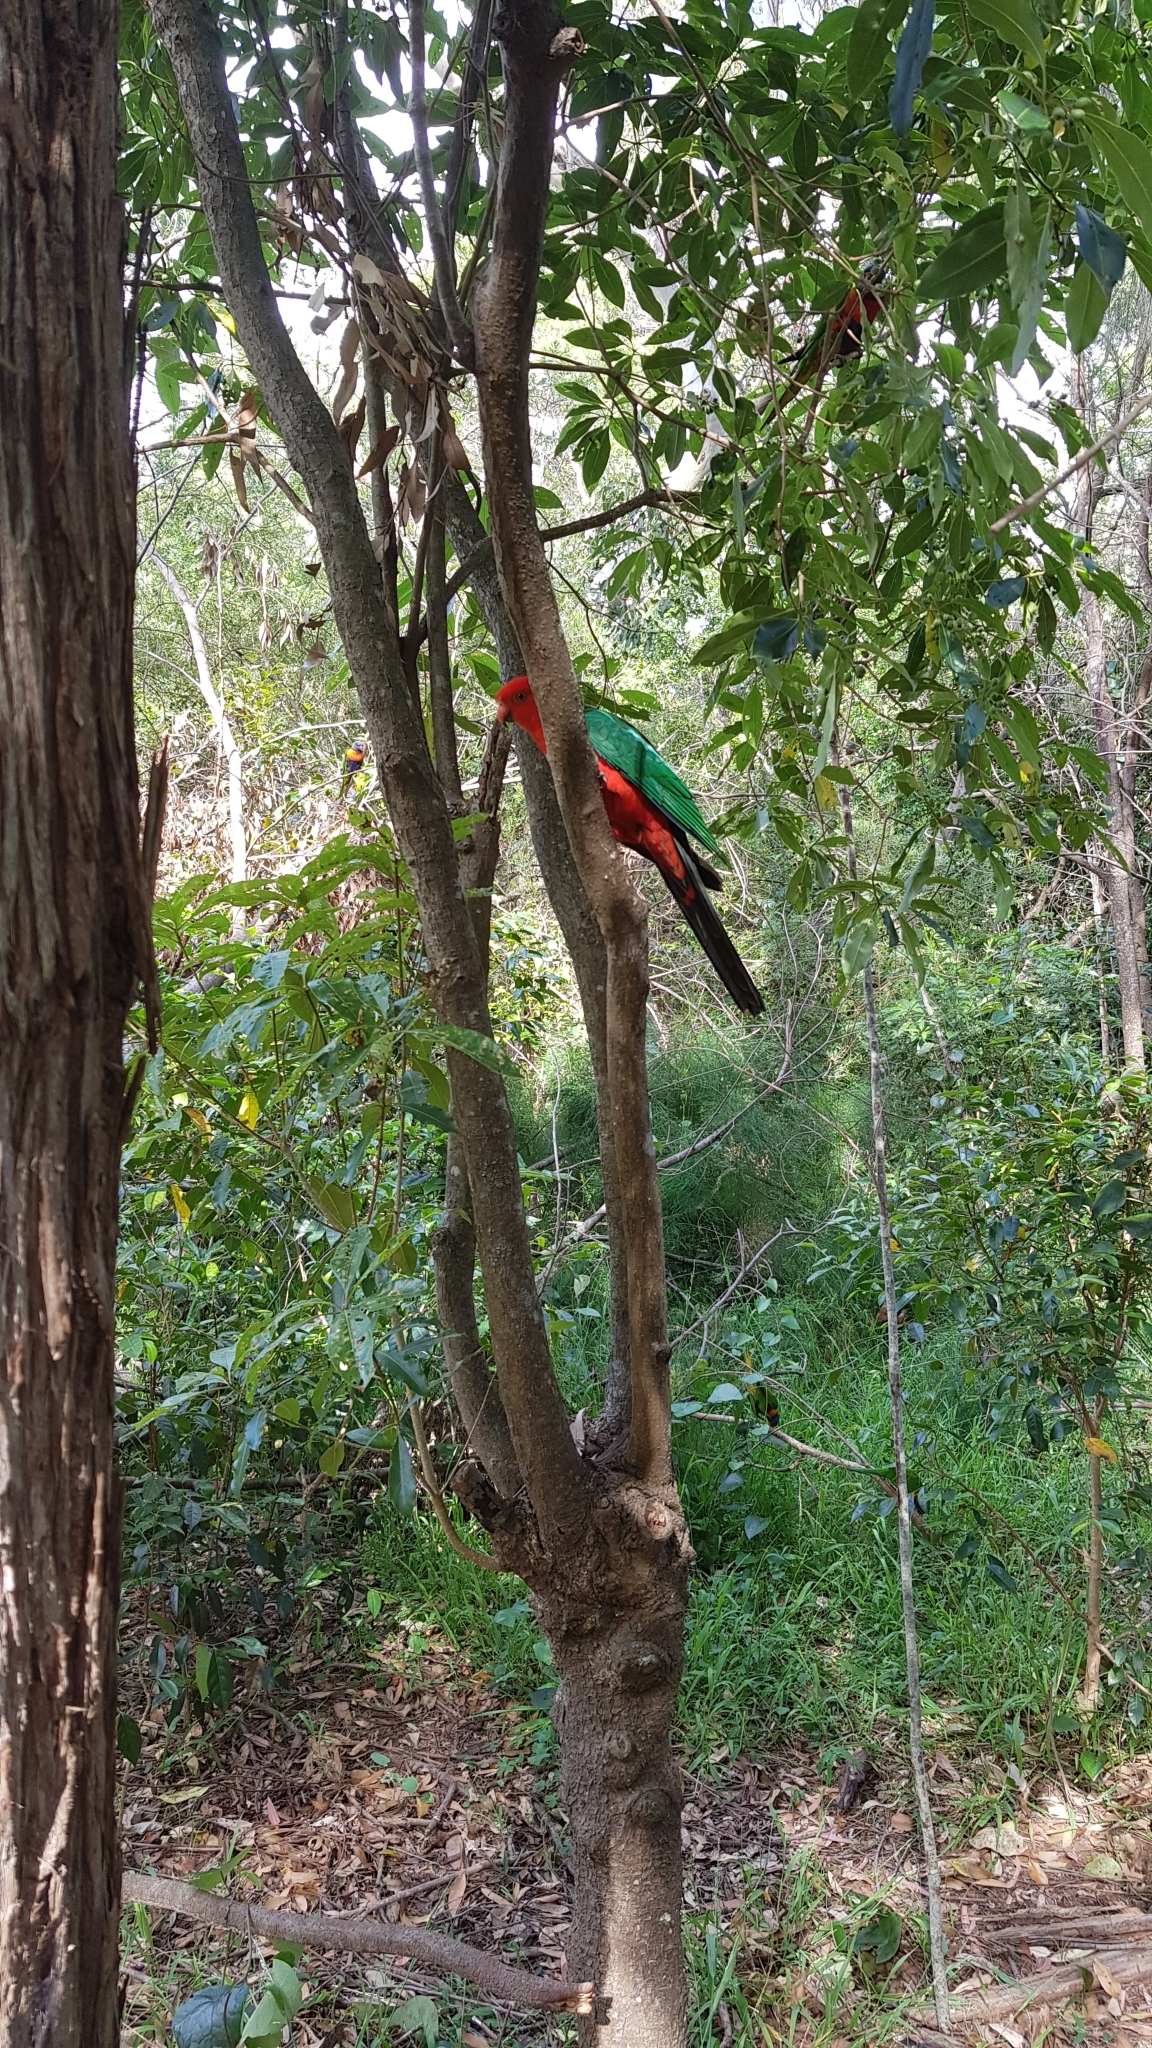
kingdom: Animalia
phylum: Chordata
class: Aves
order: Psittaciformes
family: Psittacidae
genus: Alisterus
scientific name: Alisterus scapularis
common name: Australian king parrot
